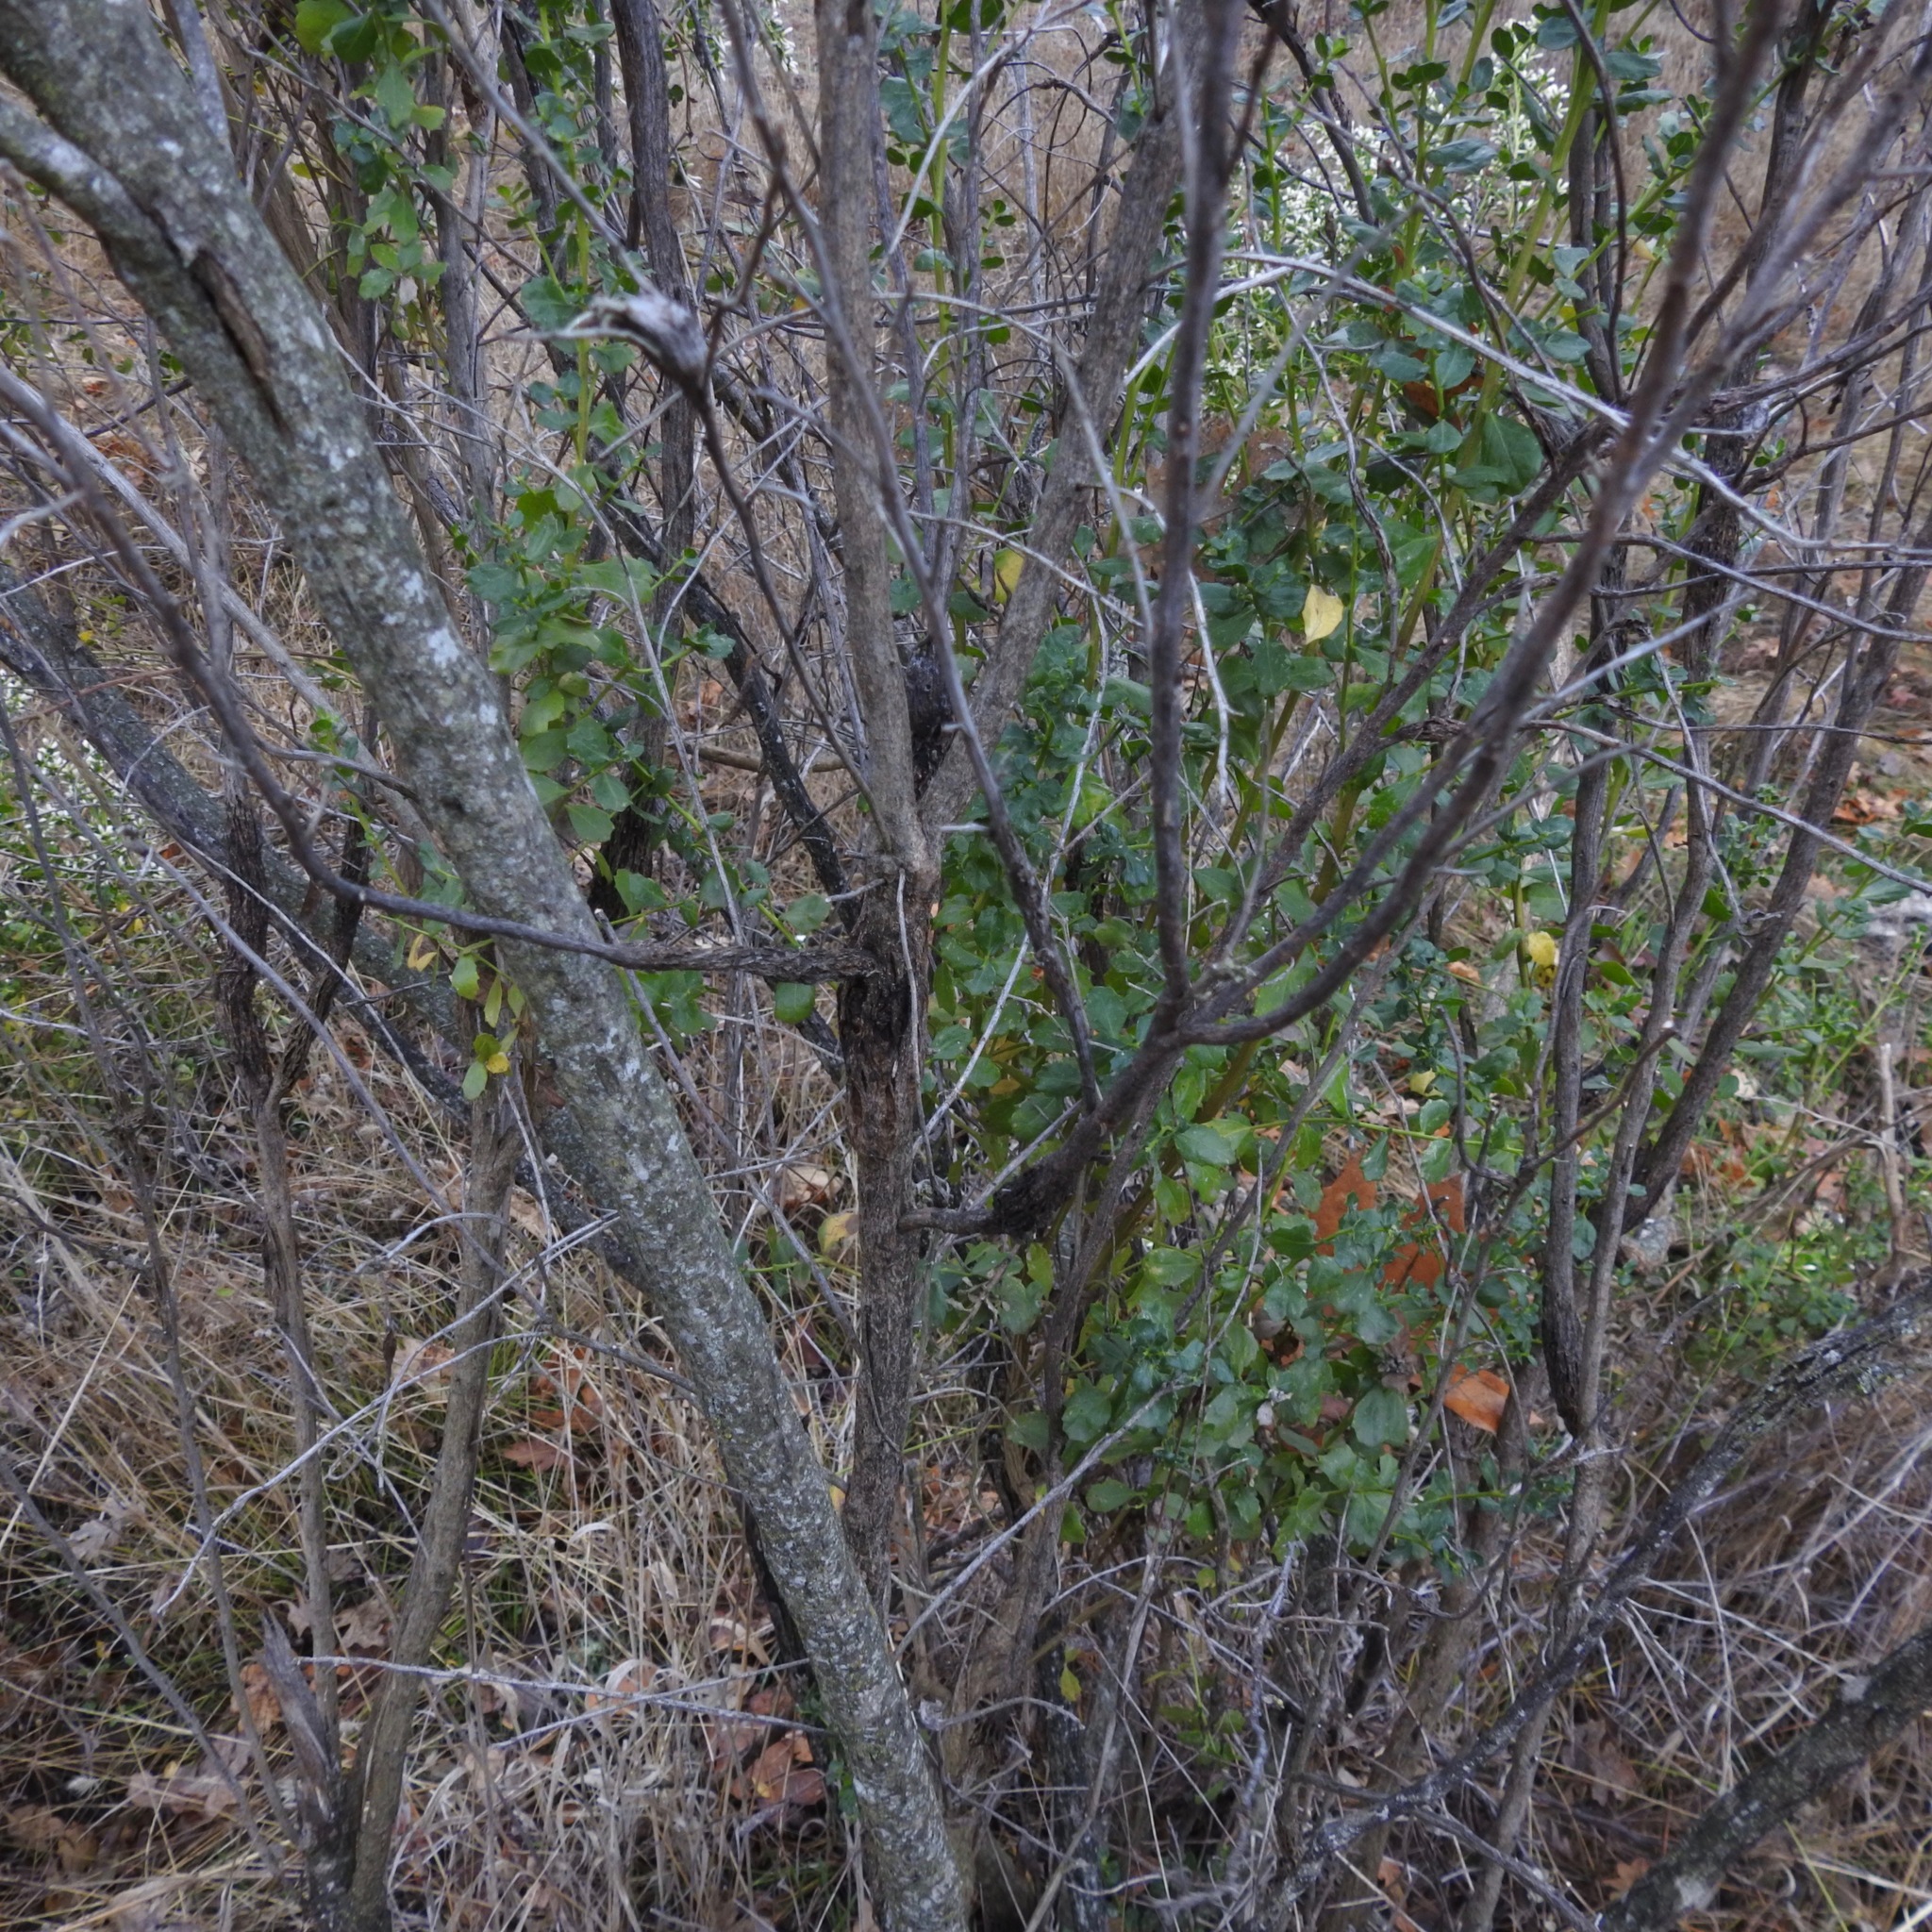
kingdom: Fungi
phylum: Basidiomycota
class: Pucciniomycetes
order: Pucciniales
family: Pucciniaceae
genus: Eriosporangium
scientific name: Eriosporangium evadens
